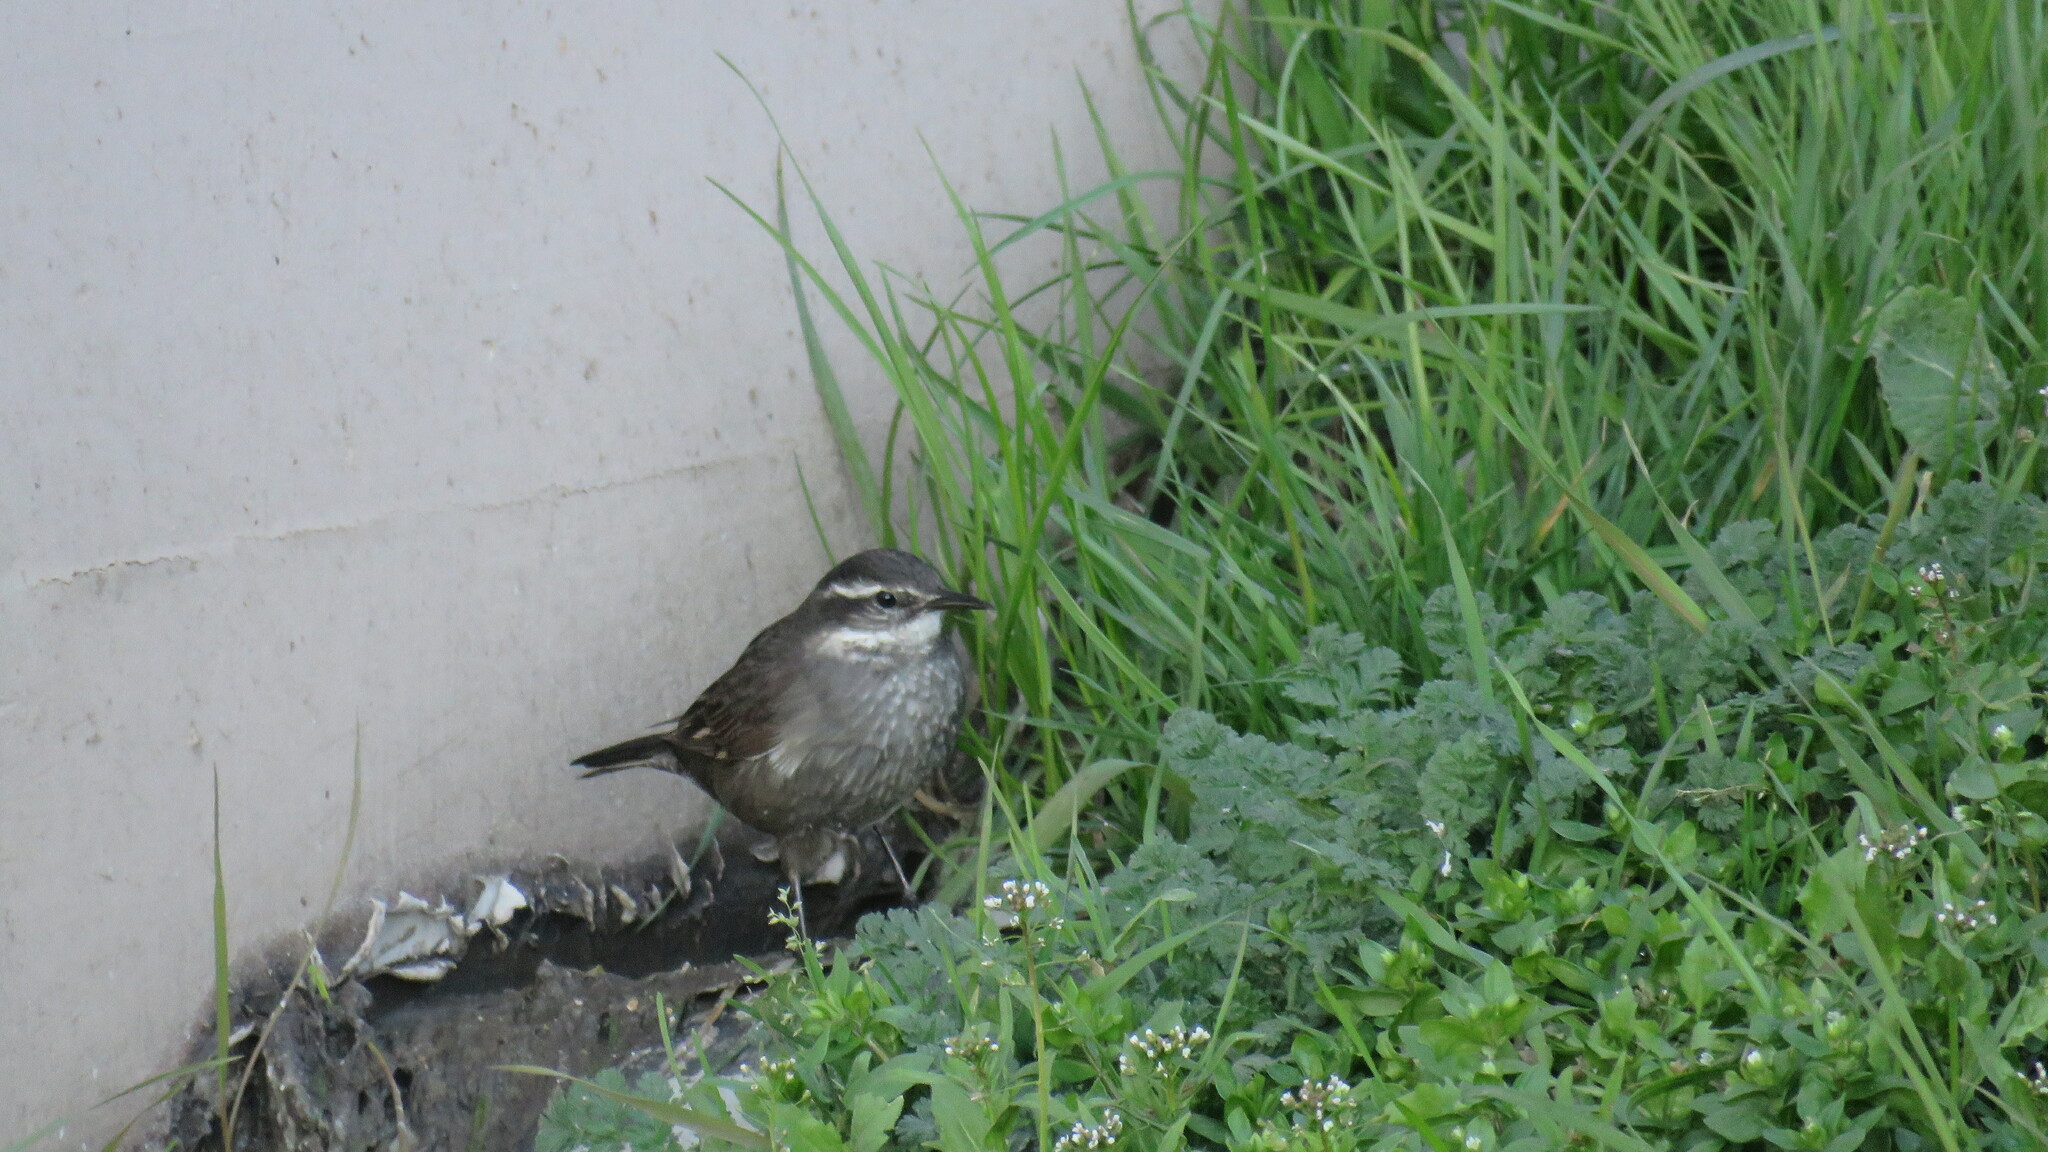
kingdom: Animalia
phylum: Chordata
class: Aves
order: Passeriformes
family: Furnariidae
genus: Cinclodes
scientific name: Cinclodes oustaleti
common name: Grey-flanked cinclodes
